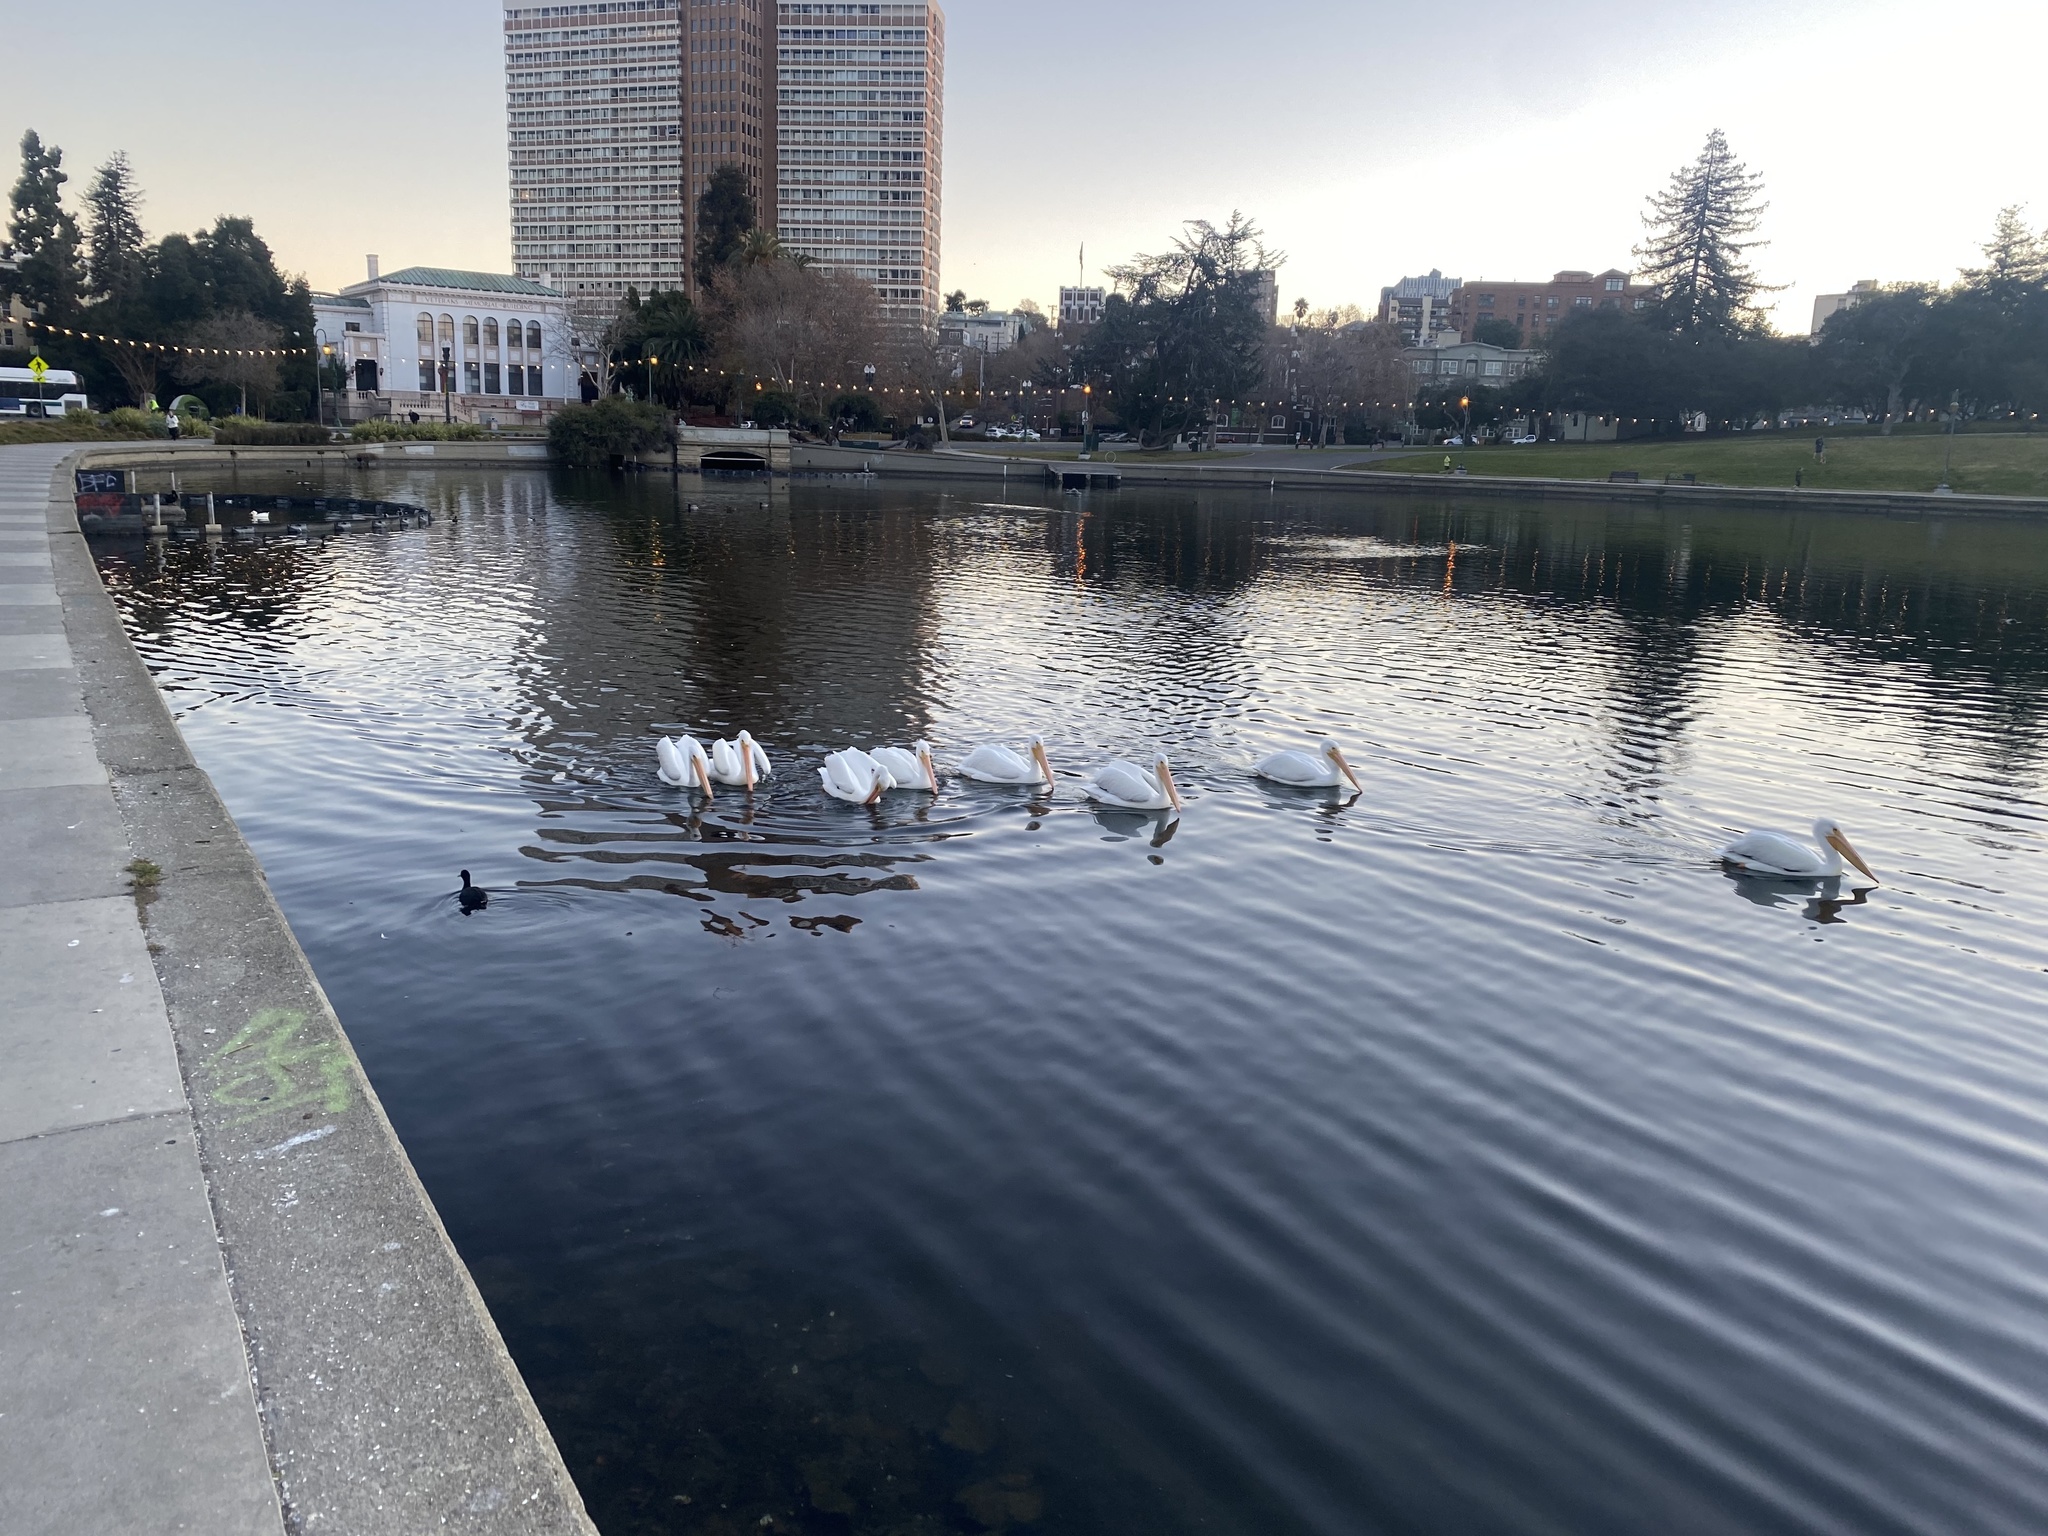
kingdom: Animalia
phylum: Chordata
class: Aves
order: Pelecaniformes
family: Pelecanidae
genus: Pelecanus
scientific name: Pelecanus erythrorhynchos
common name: American white pelican
